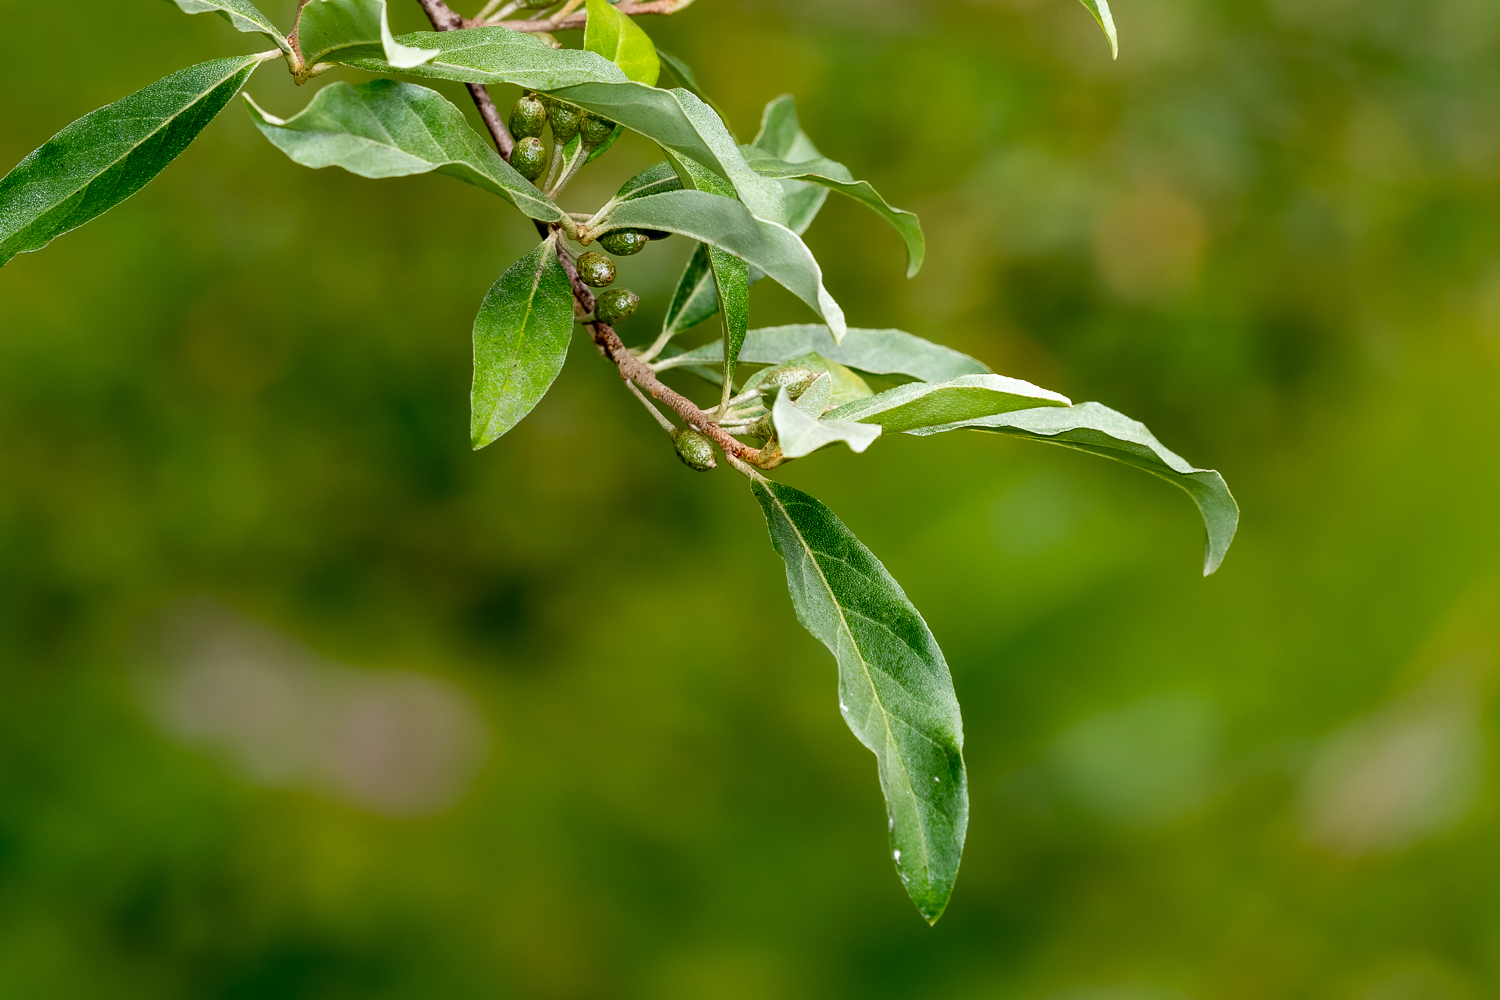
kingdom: Plantae
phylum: Tracheophyta
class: Magnoliopsida
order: Rosales
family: Elaeagnaceae
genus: Elaeagnus
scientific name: Elaeagnus umbellata
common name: Autumn olive
